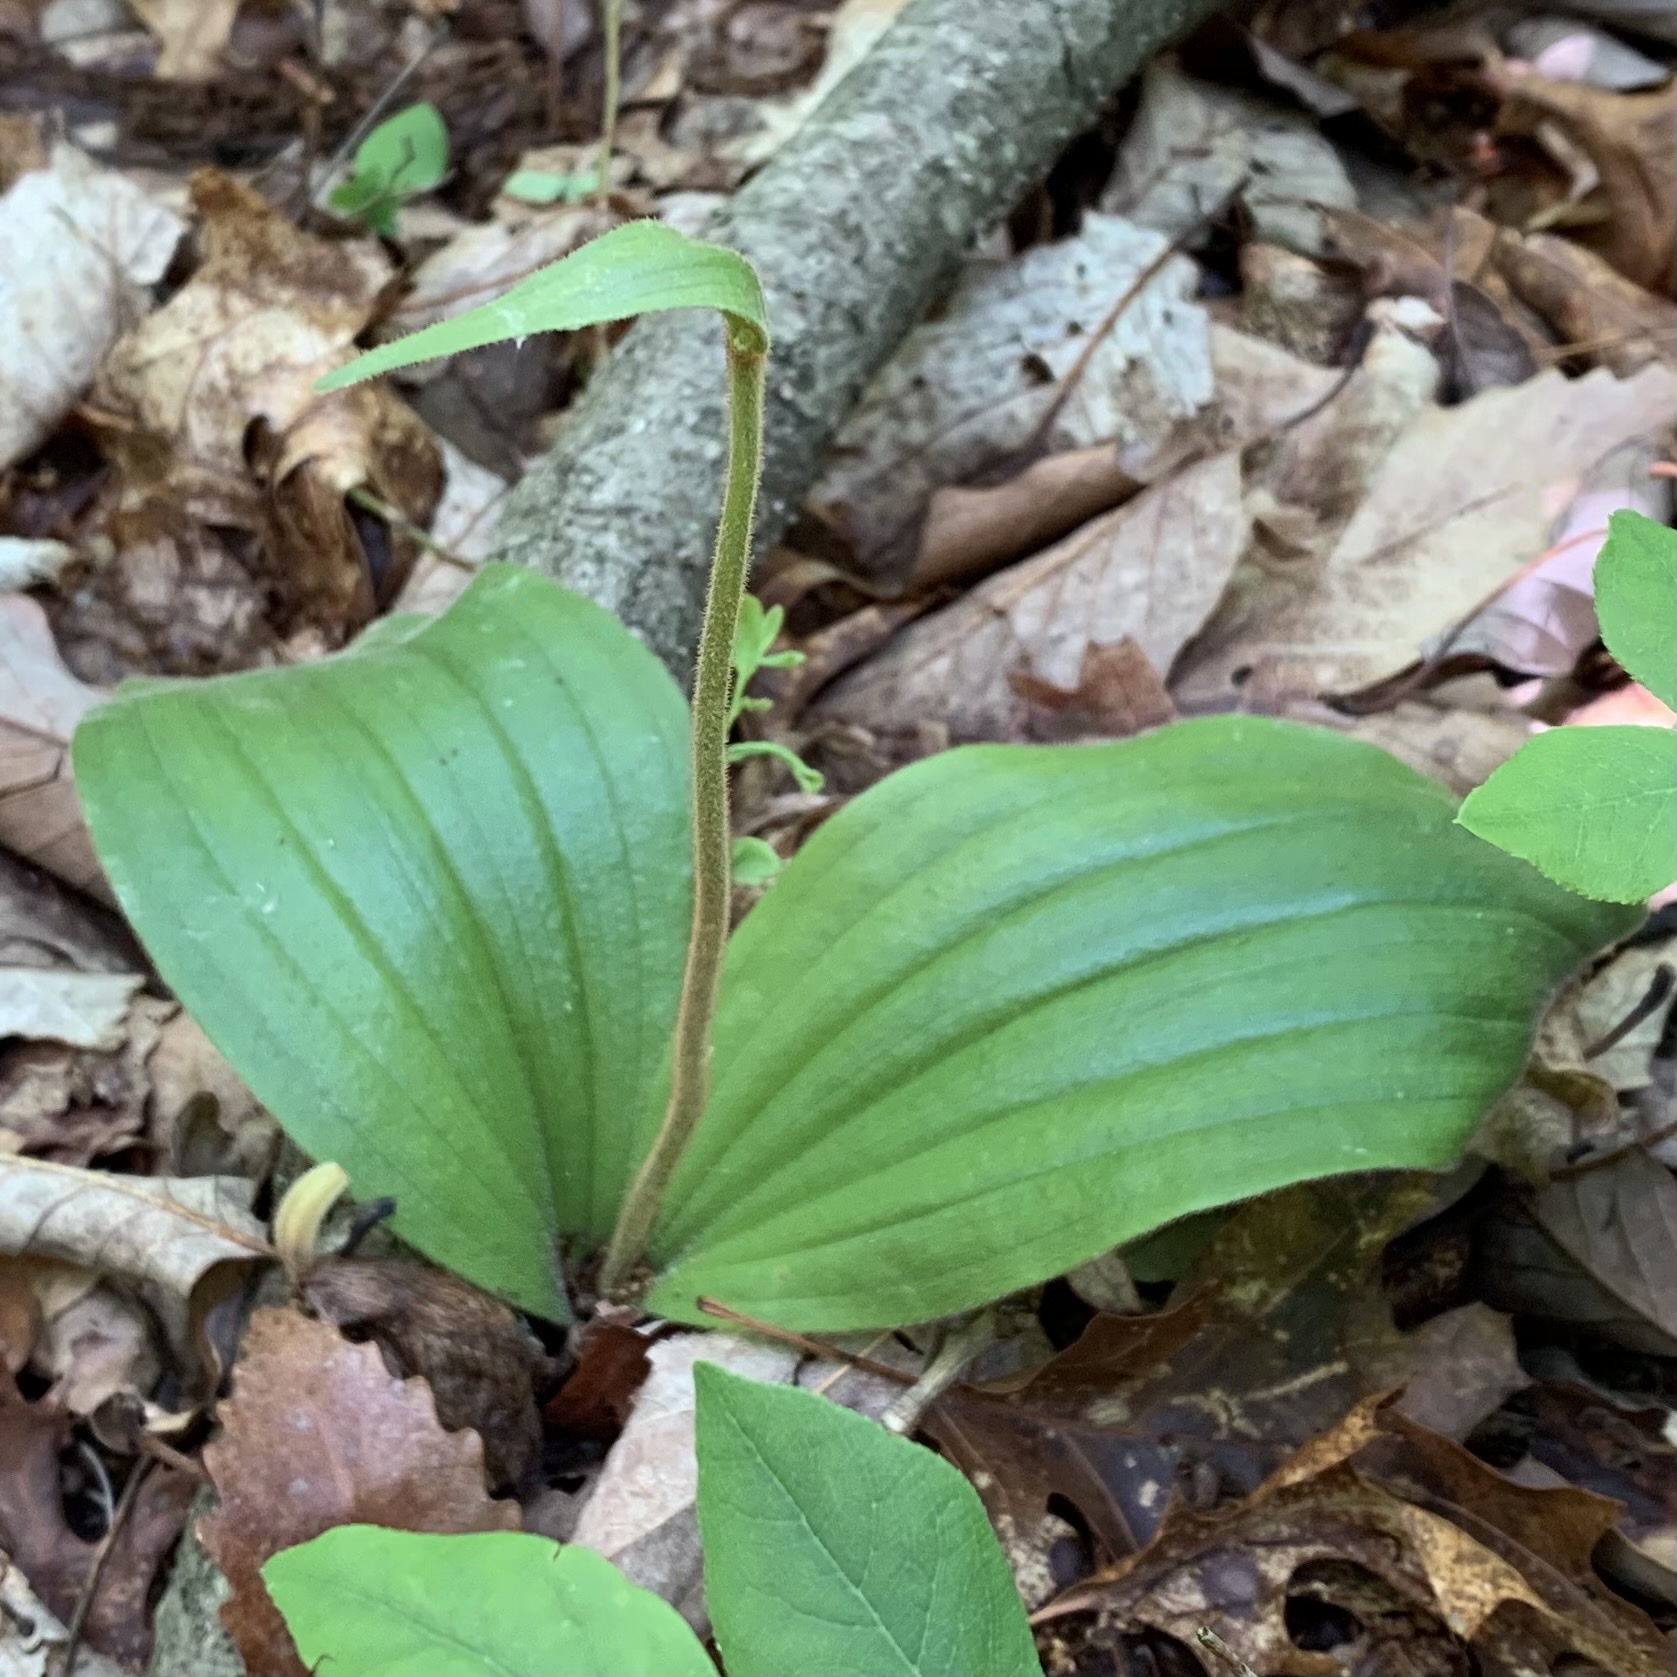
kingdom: Plantae
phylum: Tracheophyta
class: Liliopsida
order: Asparagales
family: Orchidaceae
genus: Cypripedium
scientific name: Cypripedium acaule
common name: Pink lady's-slipper
